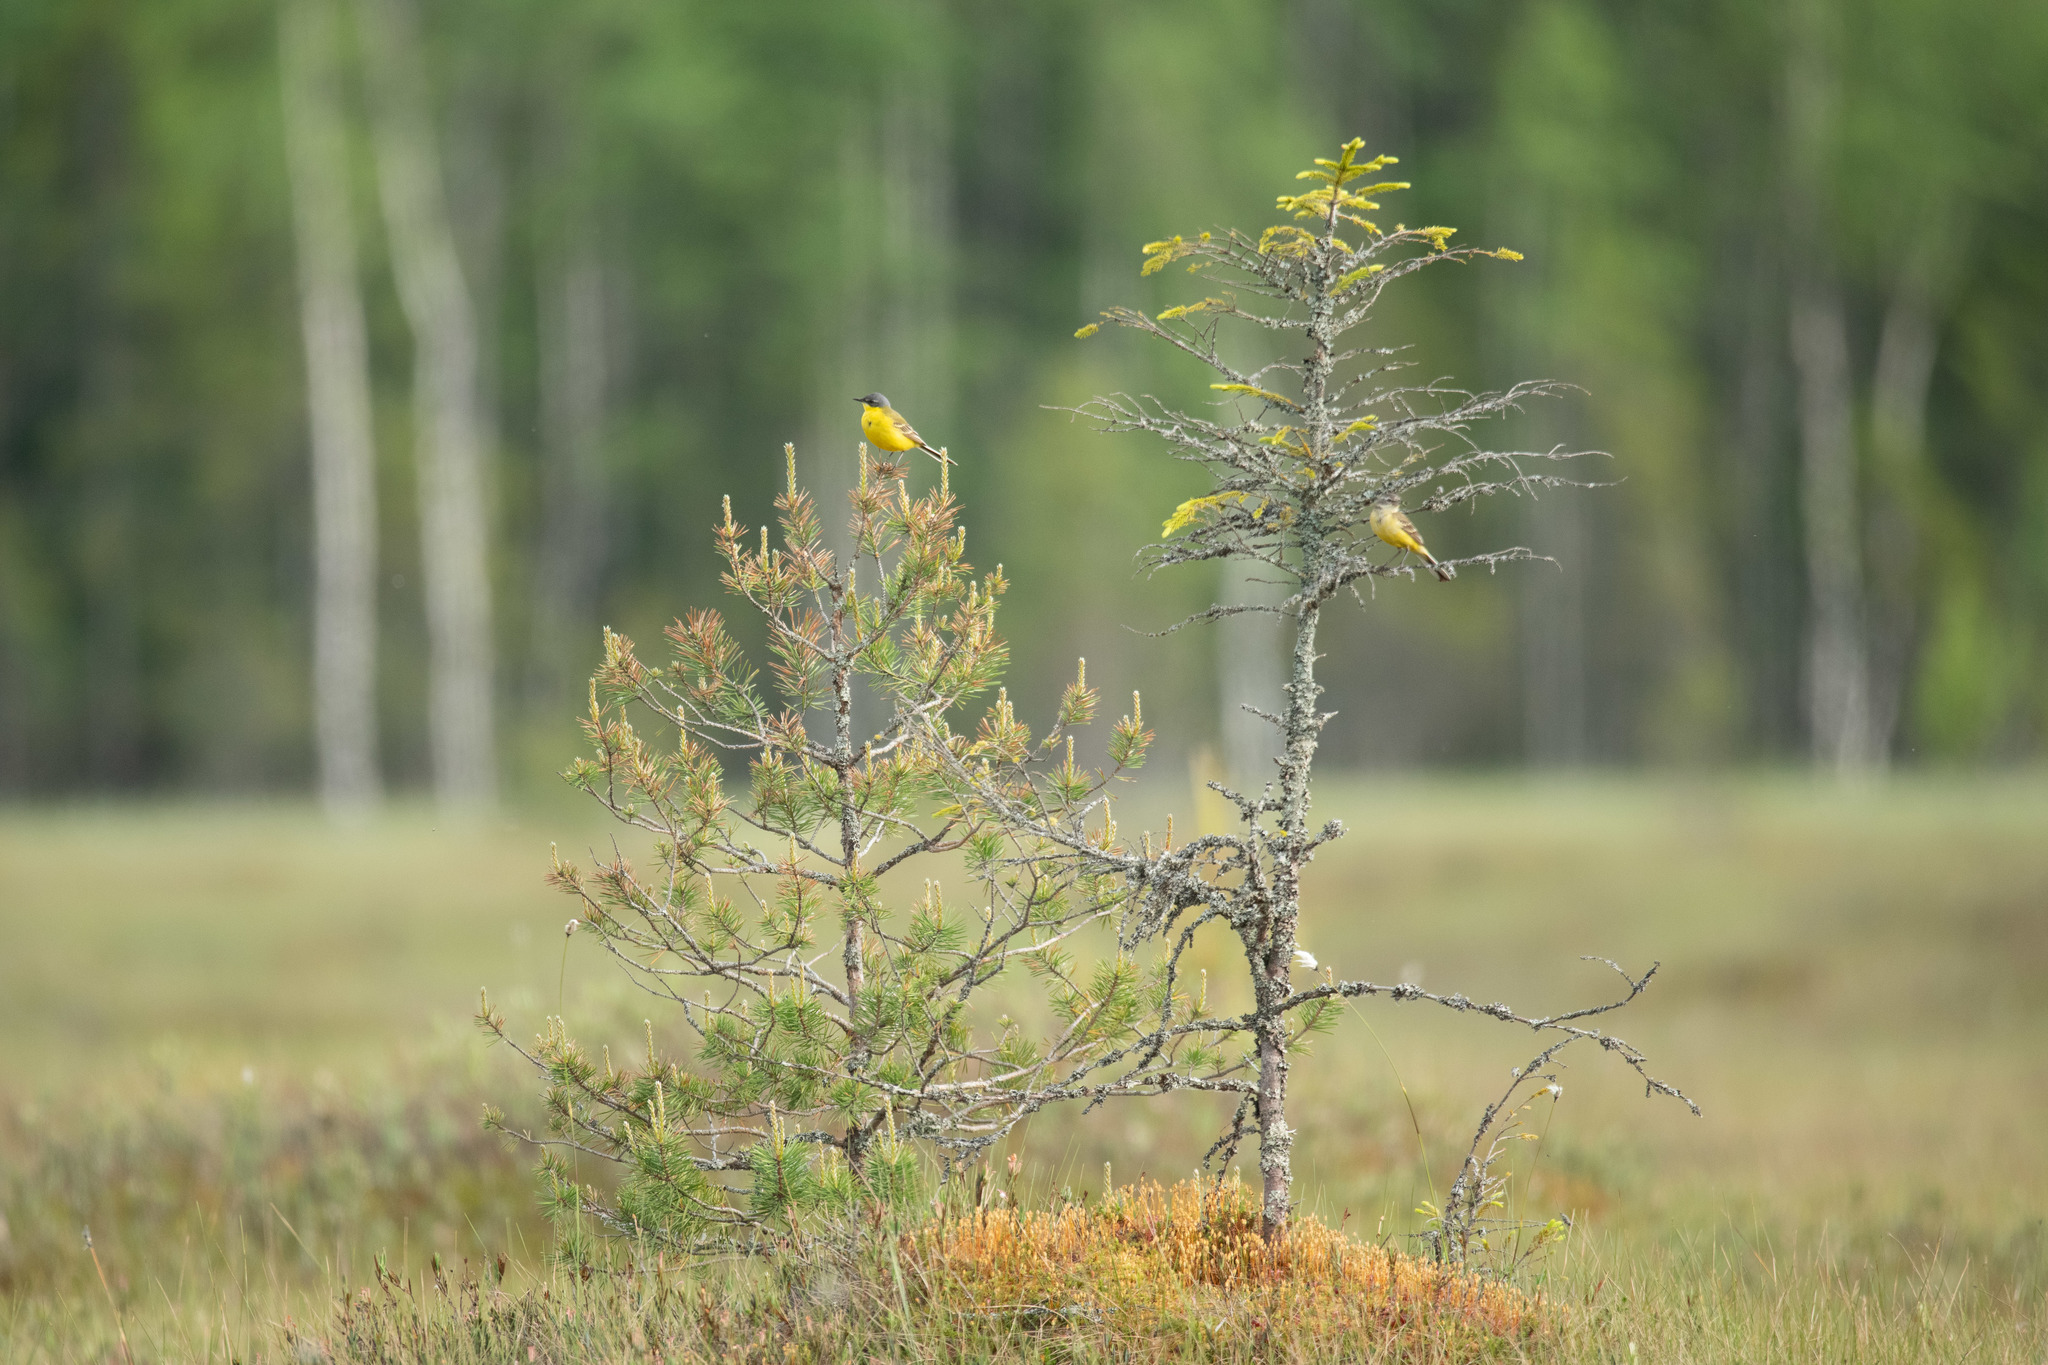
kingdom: Animalia
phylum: Chordata
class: Aves
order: Passeriformes
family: Motacillidae
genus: Motacilla
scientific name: Motacilla flava
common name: Western yellow wagtail
